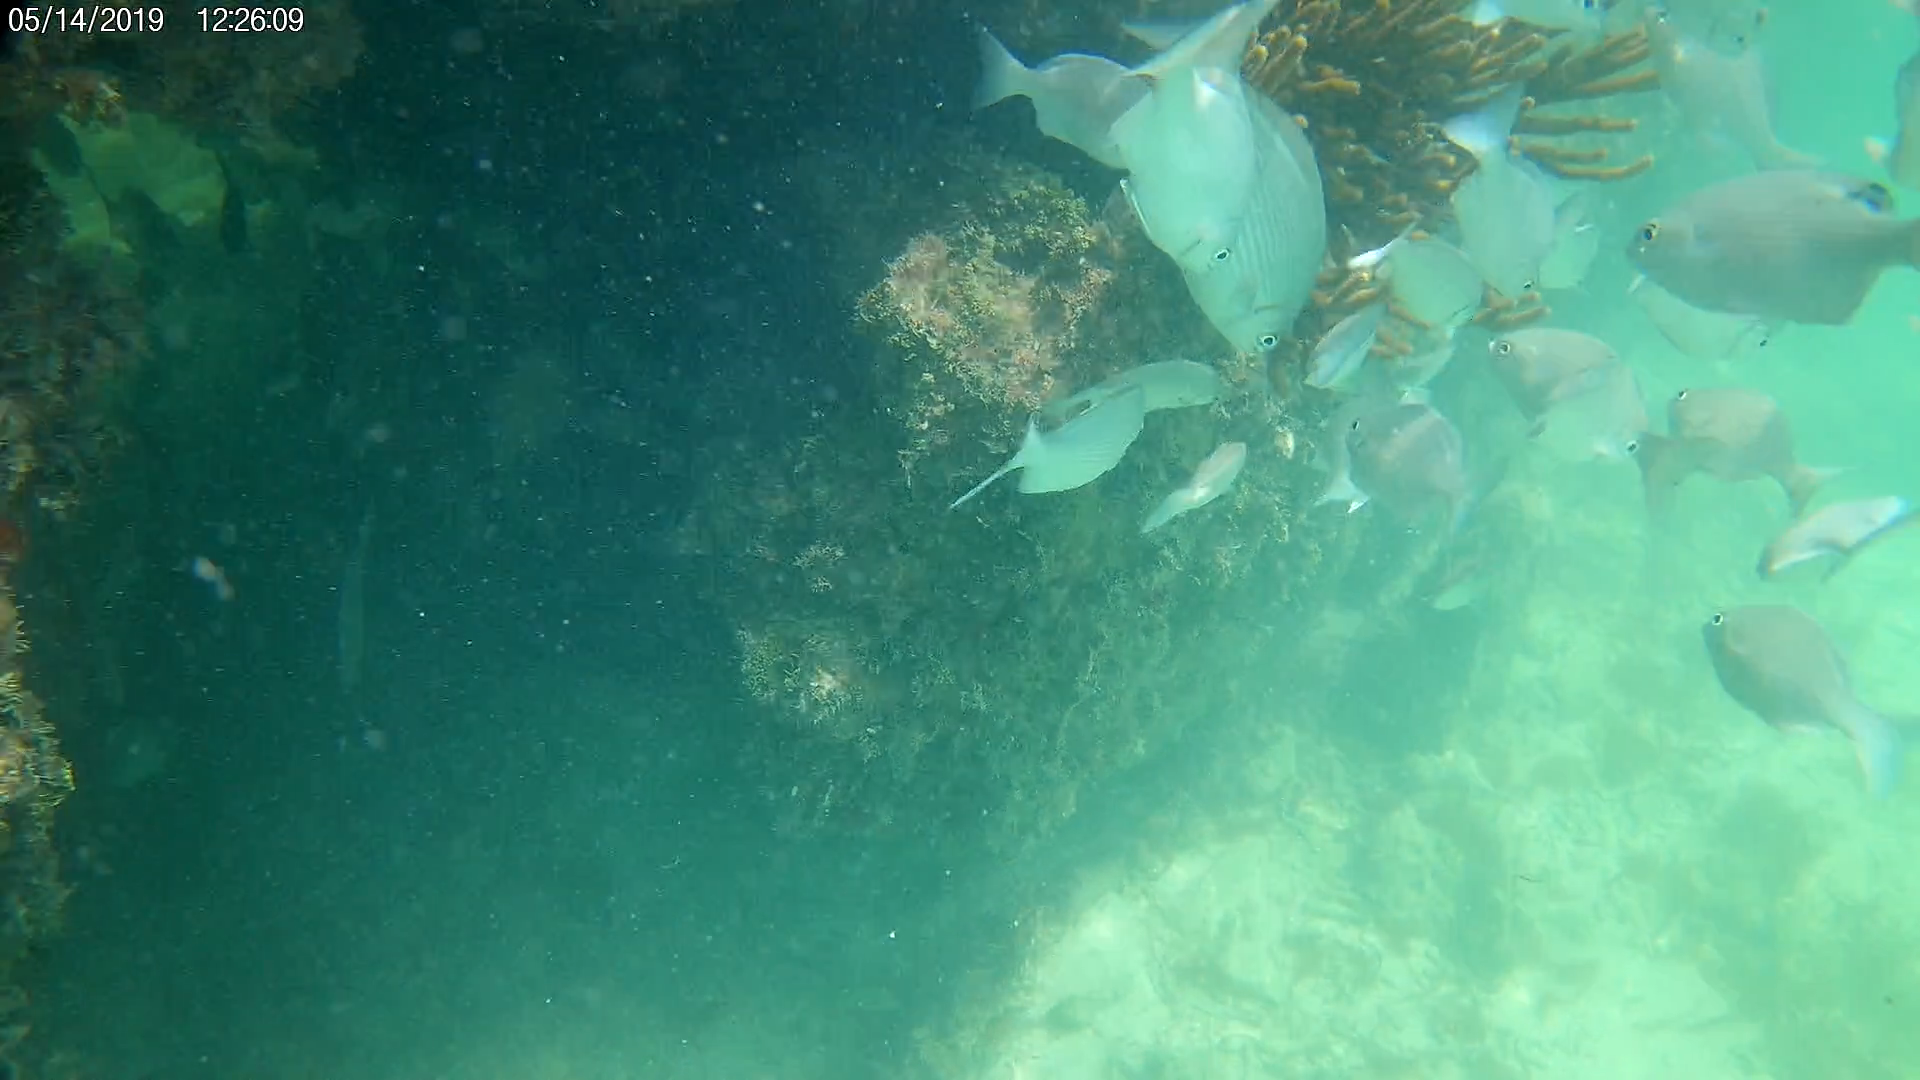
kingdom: Animalia
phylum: Chordata
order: Perciformes
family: Kyphosidae
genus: Kyphosus
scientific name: Kyphosus sectatrix
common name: Bermuda chub
